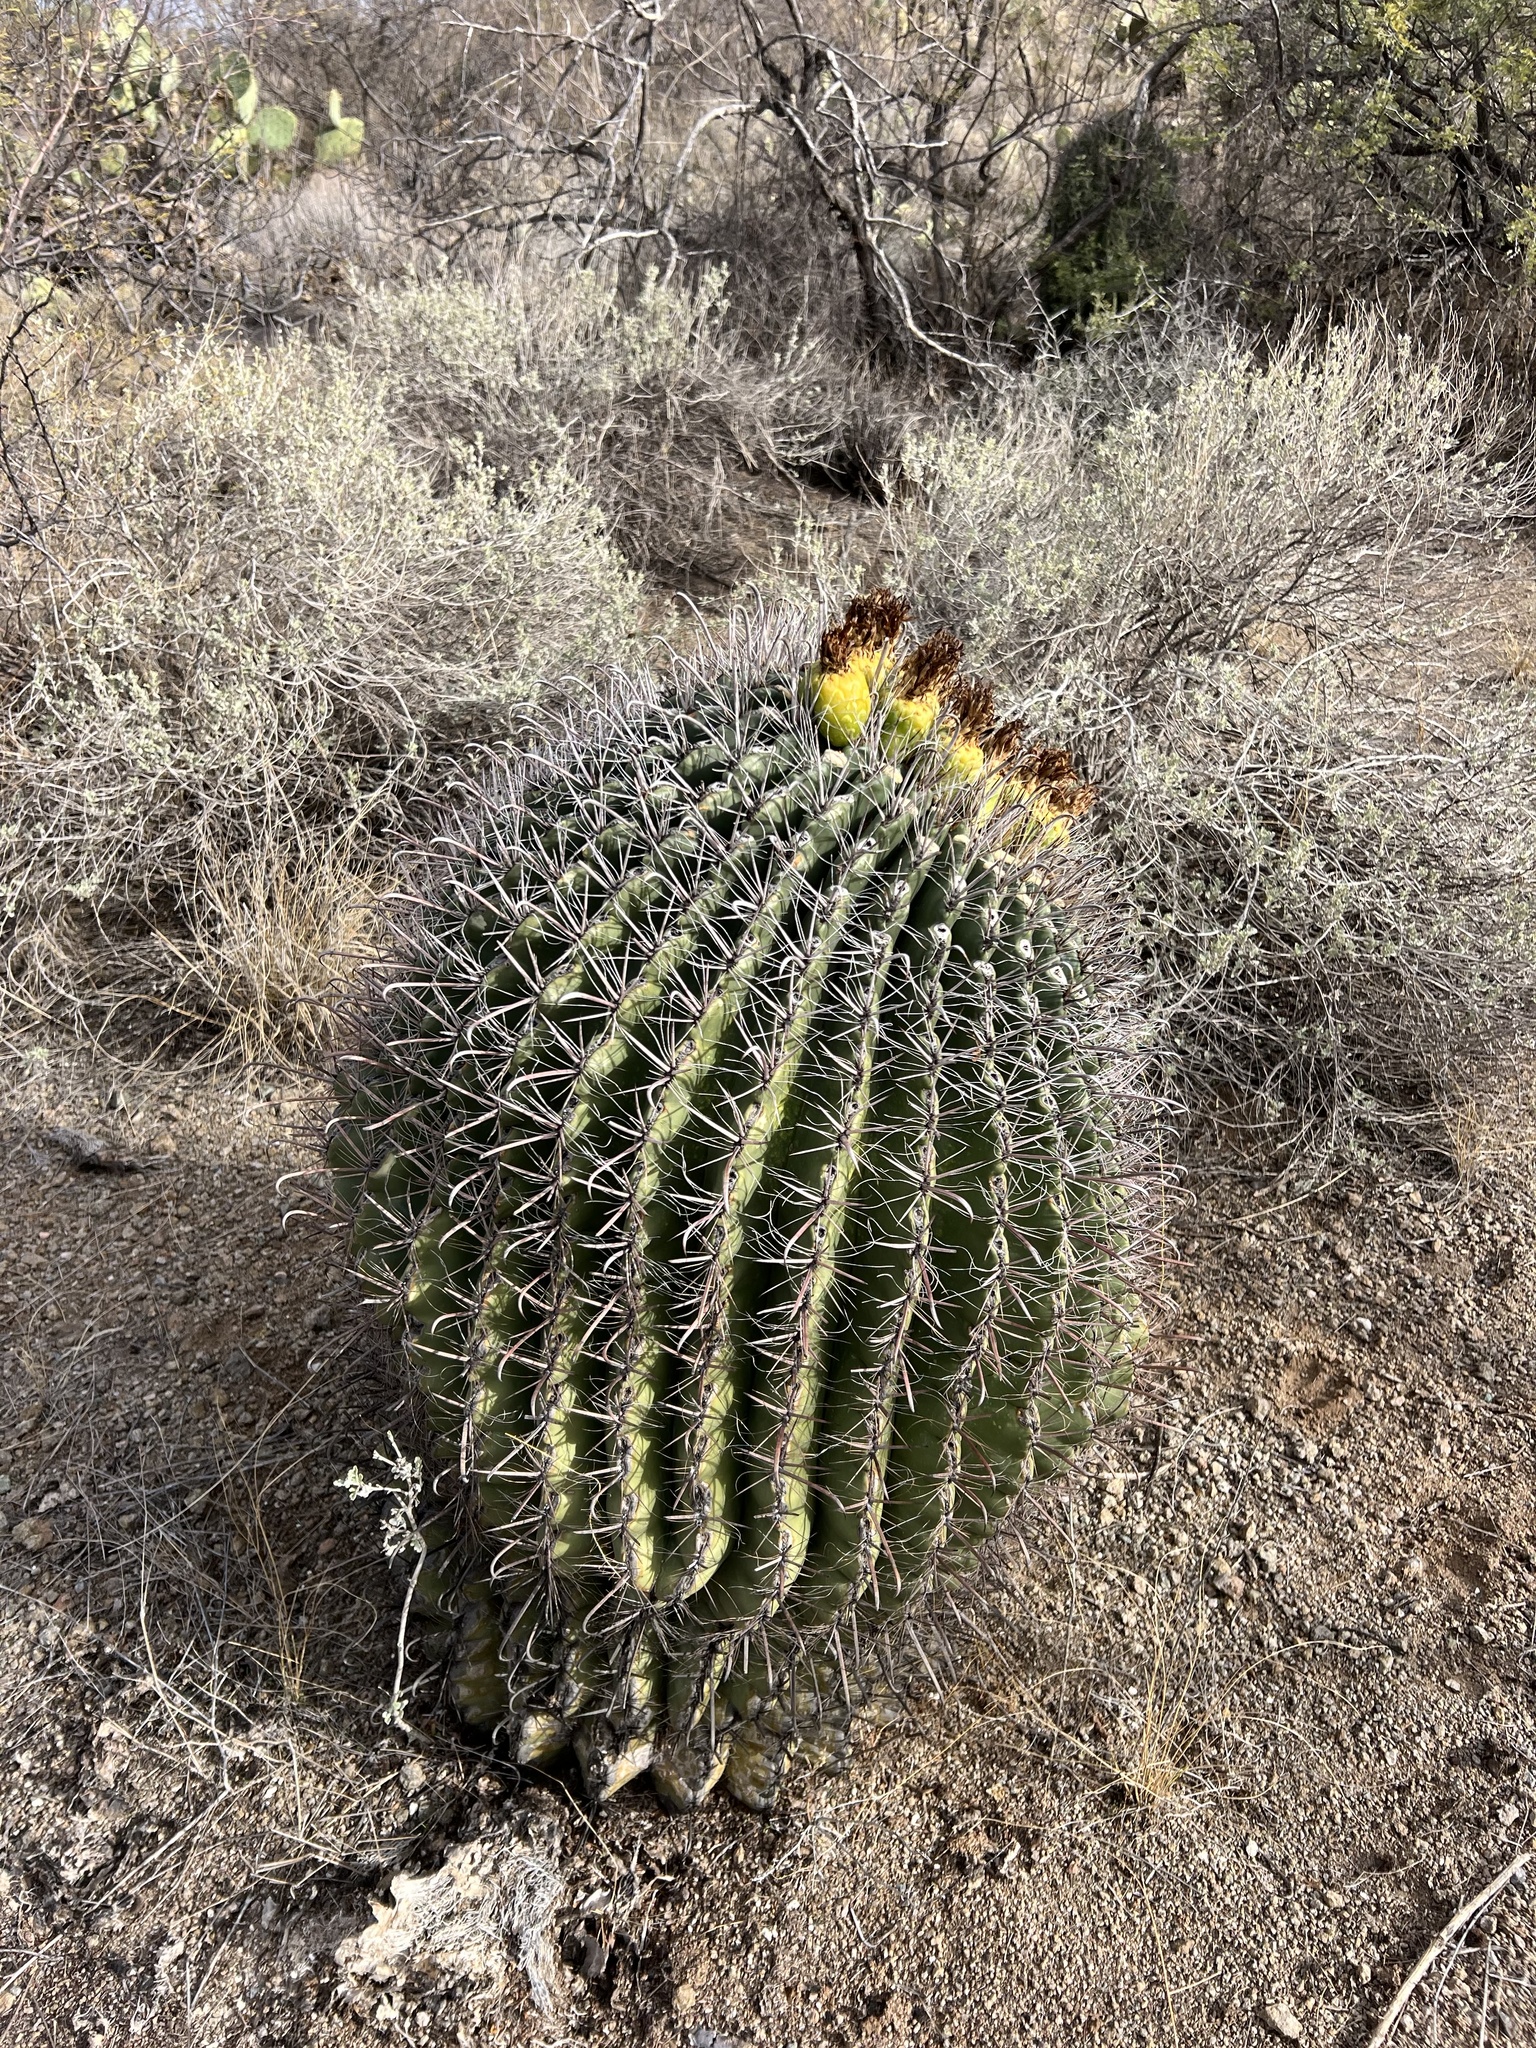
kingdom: Plantae
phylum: Tracheophyta
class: Magnoliopsida
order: Caryophyllales
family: Cactaceae
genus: Ferocactus
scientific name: Ferocactus wislizeni
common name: Candy barrel cactus
